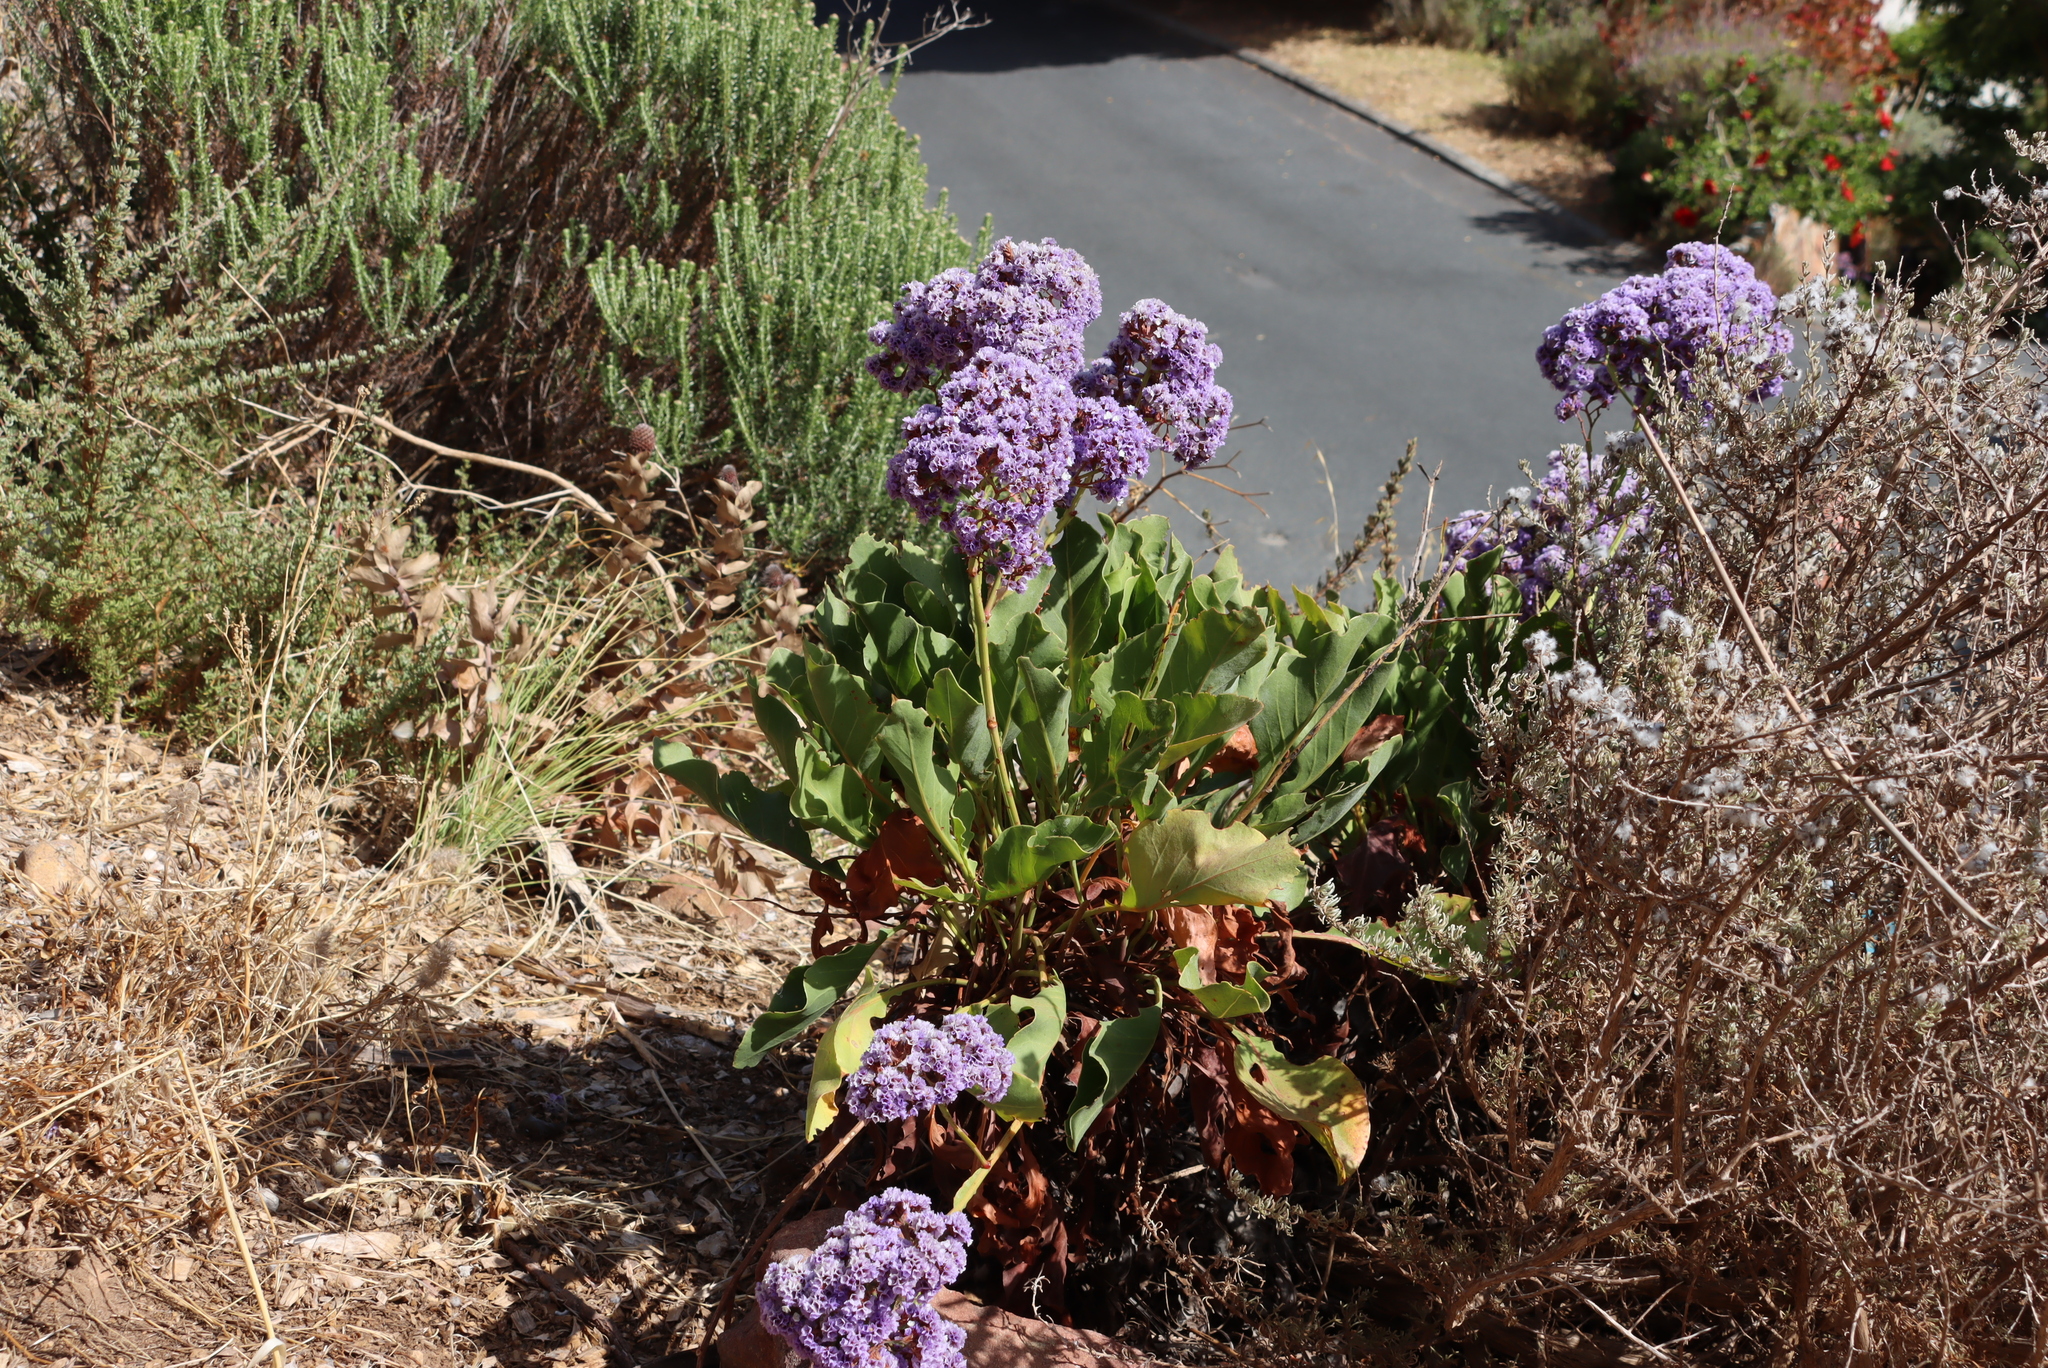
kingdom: Plantae
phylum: Tracheophyta
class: Magnoliopsida
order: Caryophyllales
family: Plumbaginaceae
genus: Limonium
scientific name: Limonium perezii
